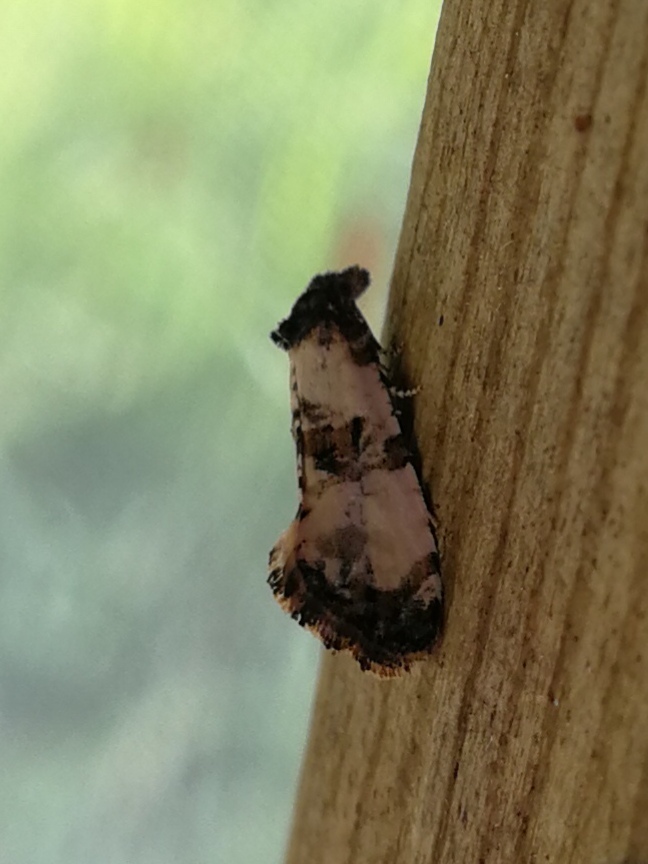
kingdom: Animalia
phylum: Arthropoda
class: Insecta
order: Lepidoptera
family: Tortricidae
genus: Cochylis
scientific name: Cochylis atricapitana
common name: Tortricid moth
